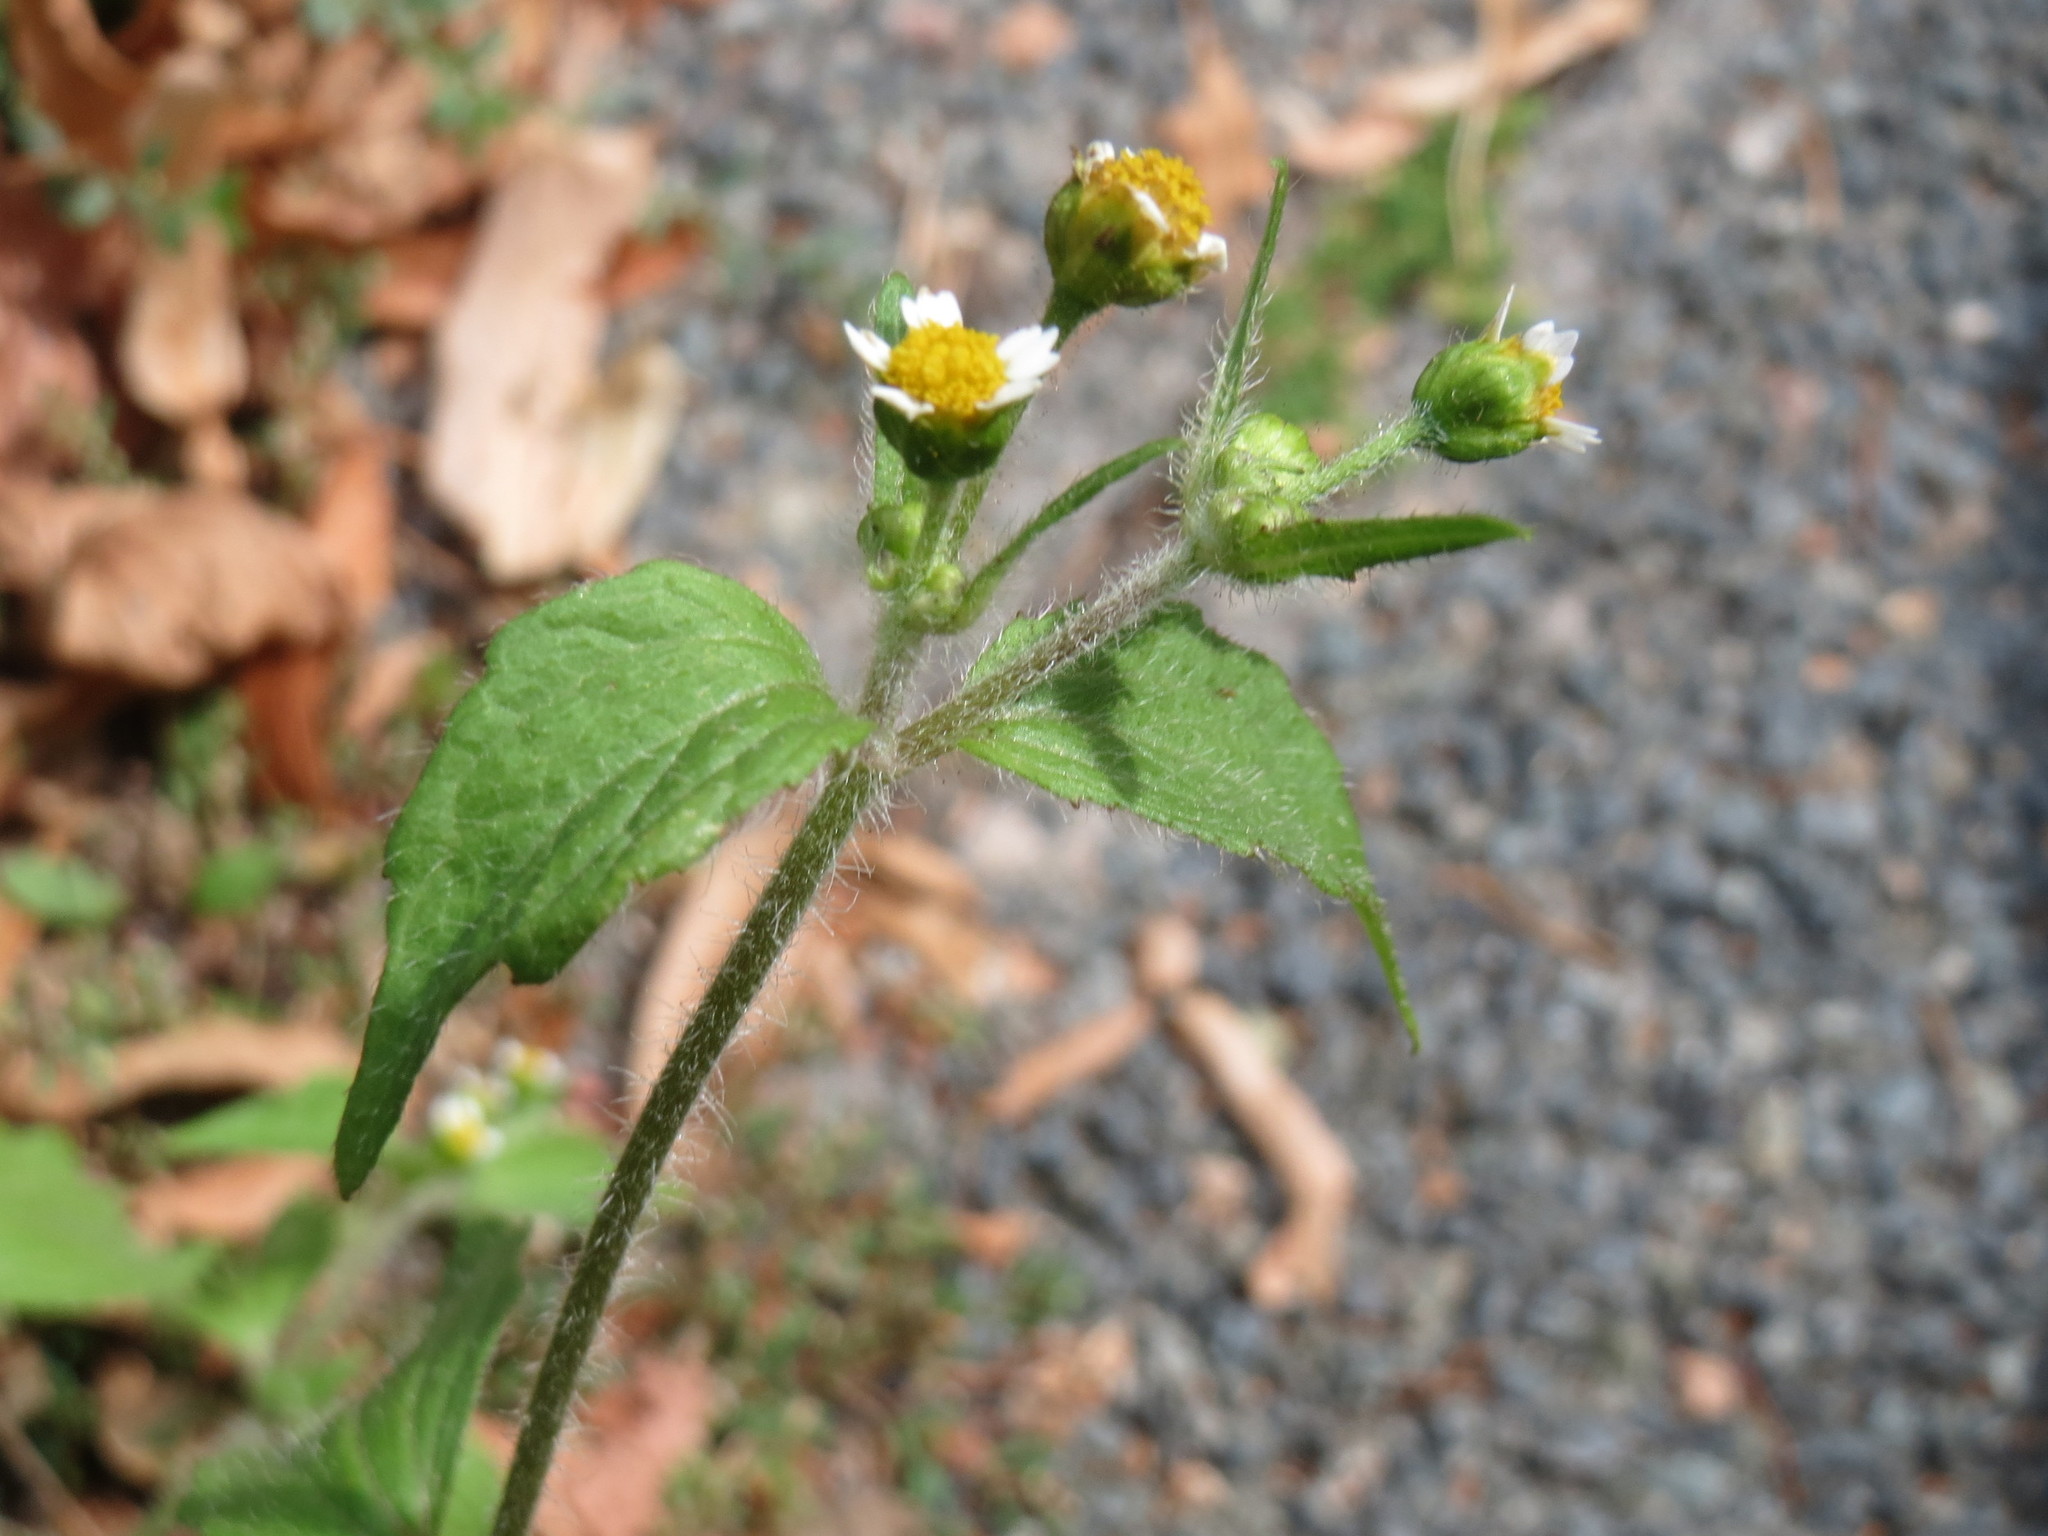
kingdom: Plantae
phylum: Tracheophyta
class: Magnoliopsida
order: Asterales
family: Asteraceae
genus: Galinsoga
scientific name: Galinsoga quadriradiata
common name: Shaggy soldier
